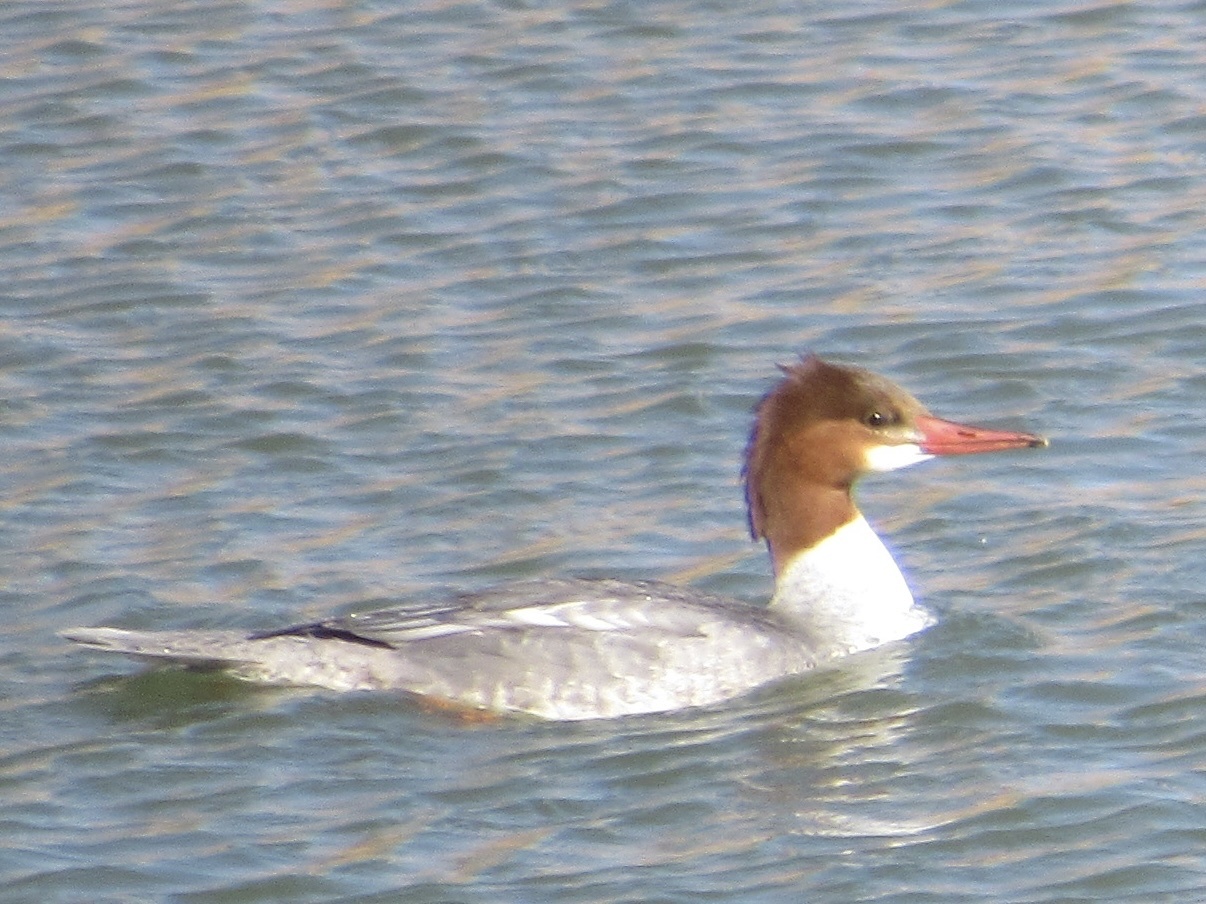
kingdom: Animalia
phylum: Chordata
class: Aves
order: Anseriformes
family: Anatidae
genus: Mergus
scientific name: Mergus merganser
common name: Common merganser
